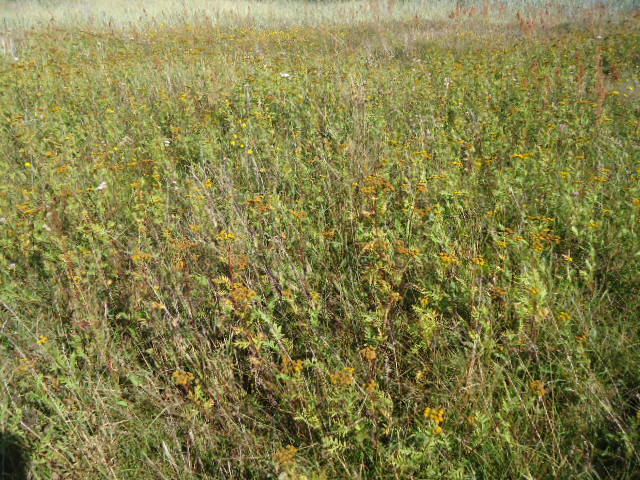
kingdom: Plantae
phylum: Tracheophyta
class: Magnoliopsida
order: Asterales
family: Asteraceae
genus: Tanacetum
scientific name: Tanacetum vulgare
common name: Common tansy
